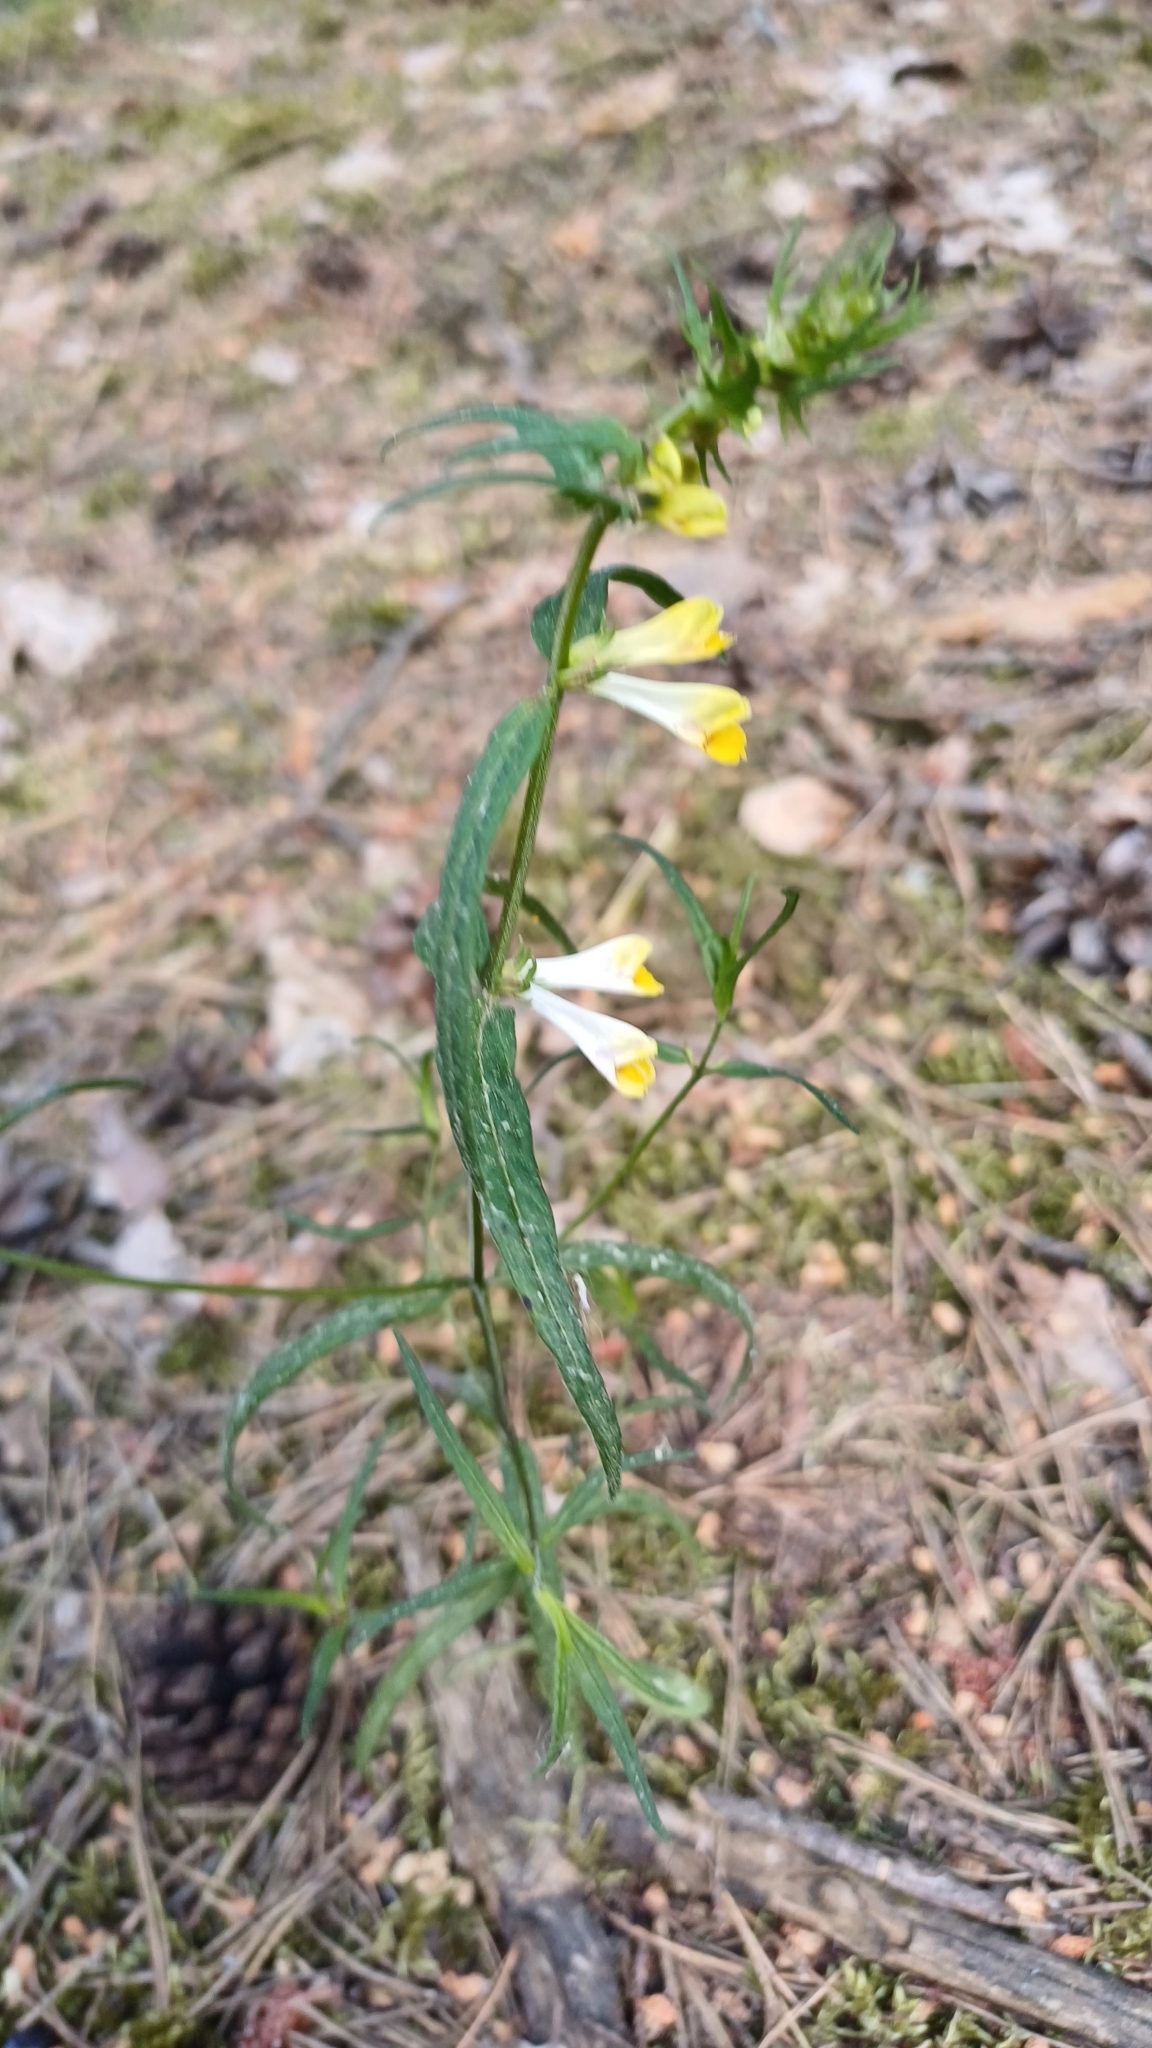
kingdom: Plantae
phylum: Tracheophyta
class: Magnoliopsida
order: Lamiales
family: Orobanchaceae
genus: Melampyrum
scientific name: Melampyrum pratense
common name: Common cow-wheat
